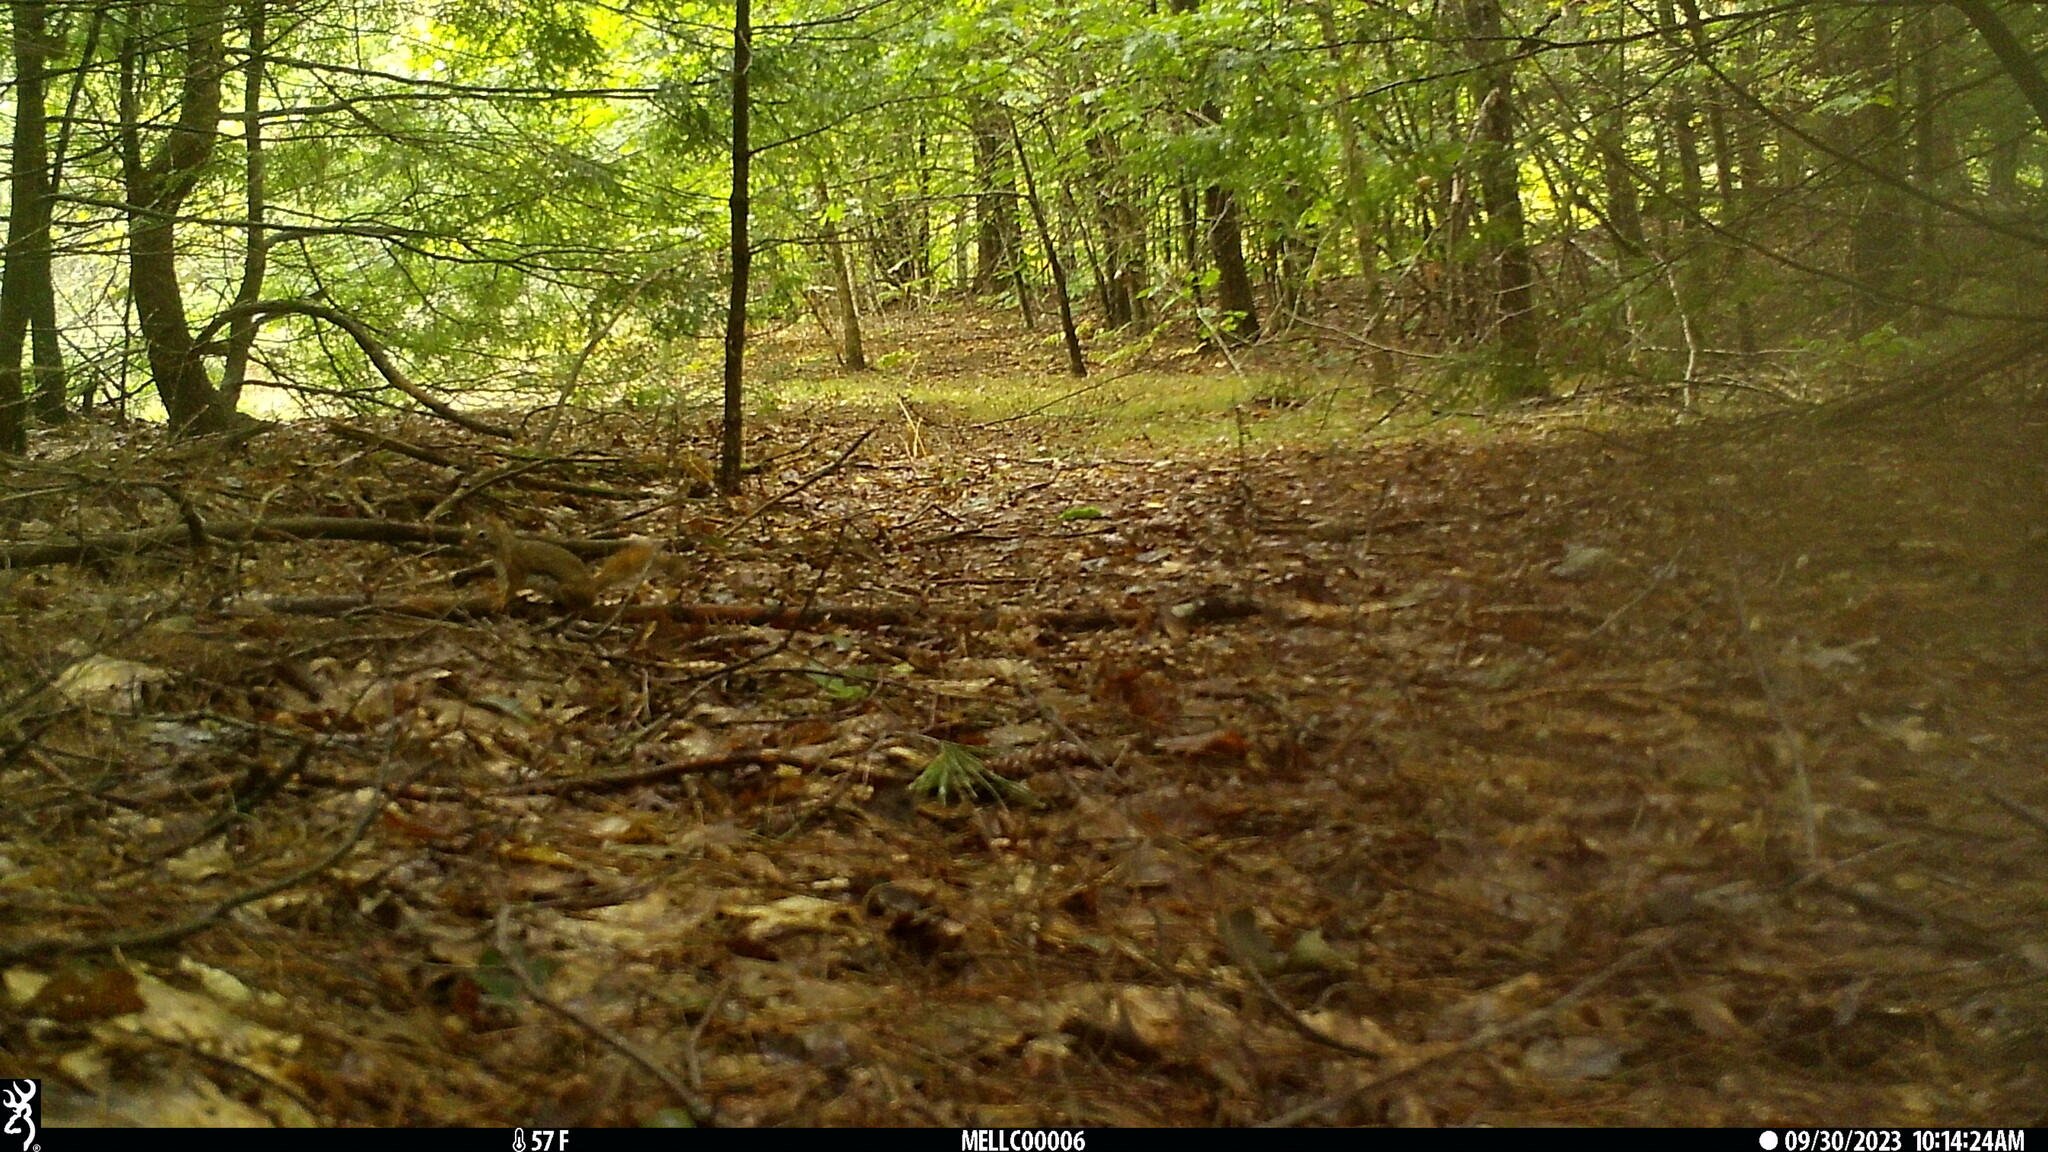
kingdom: Animalia
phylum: Chordata
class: Mammalia
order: Rodentia
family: Sciuridae
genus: Tamiasciurus
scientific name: Tamiasciurus hudsonicus
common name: Red squirrel
